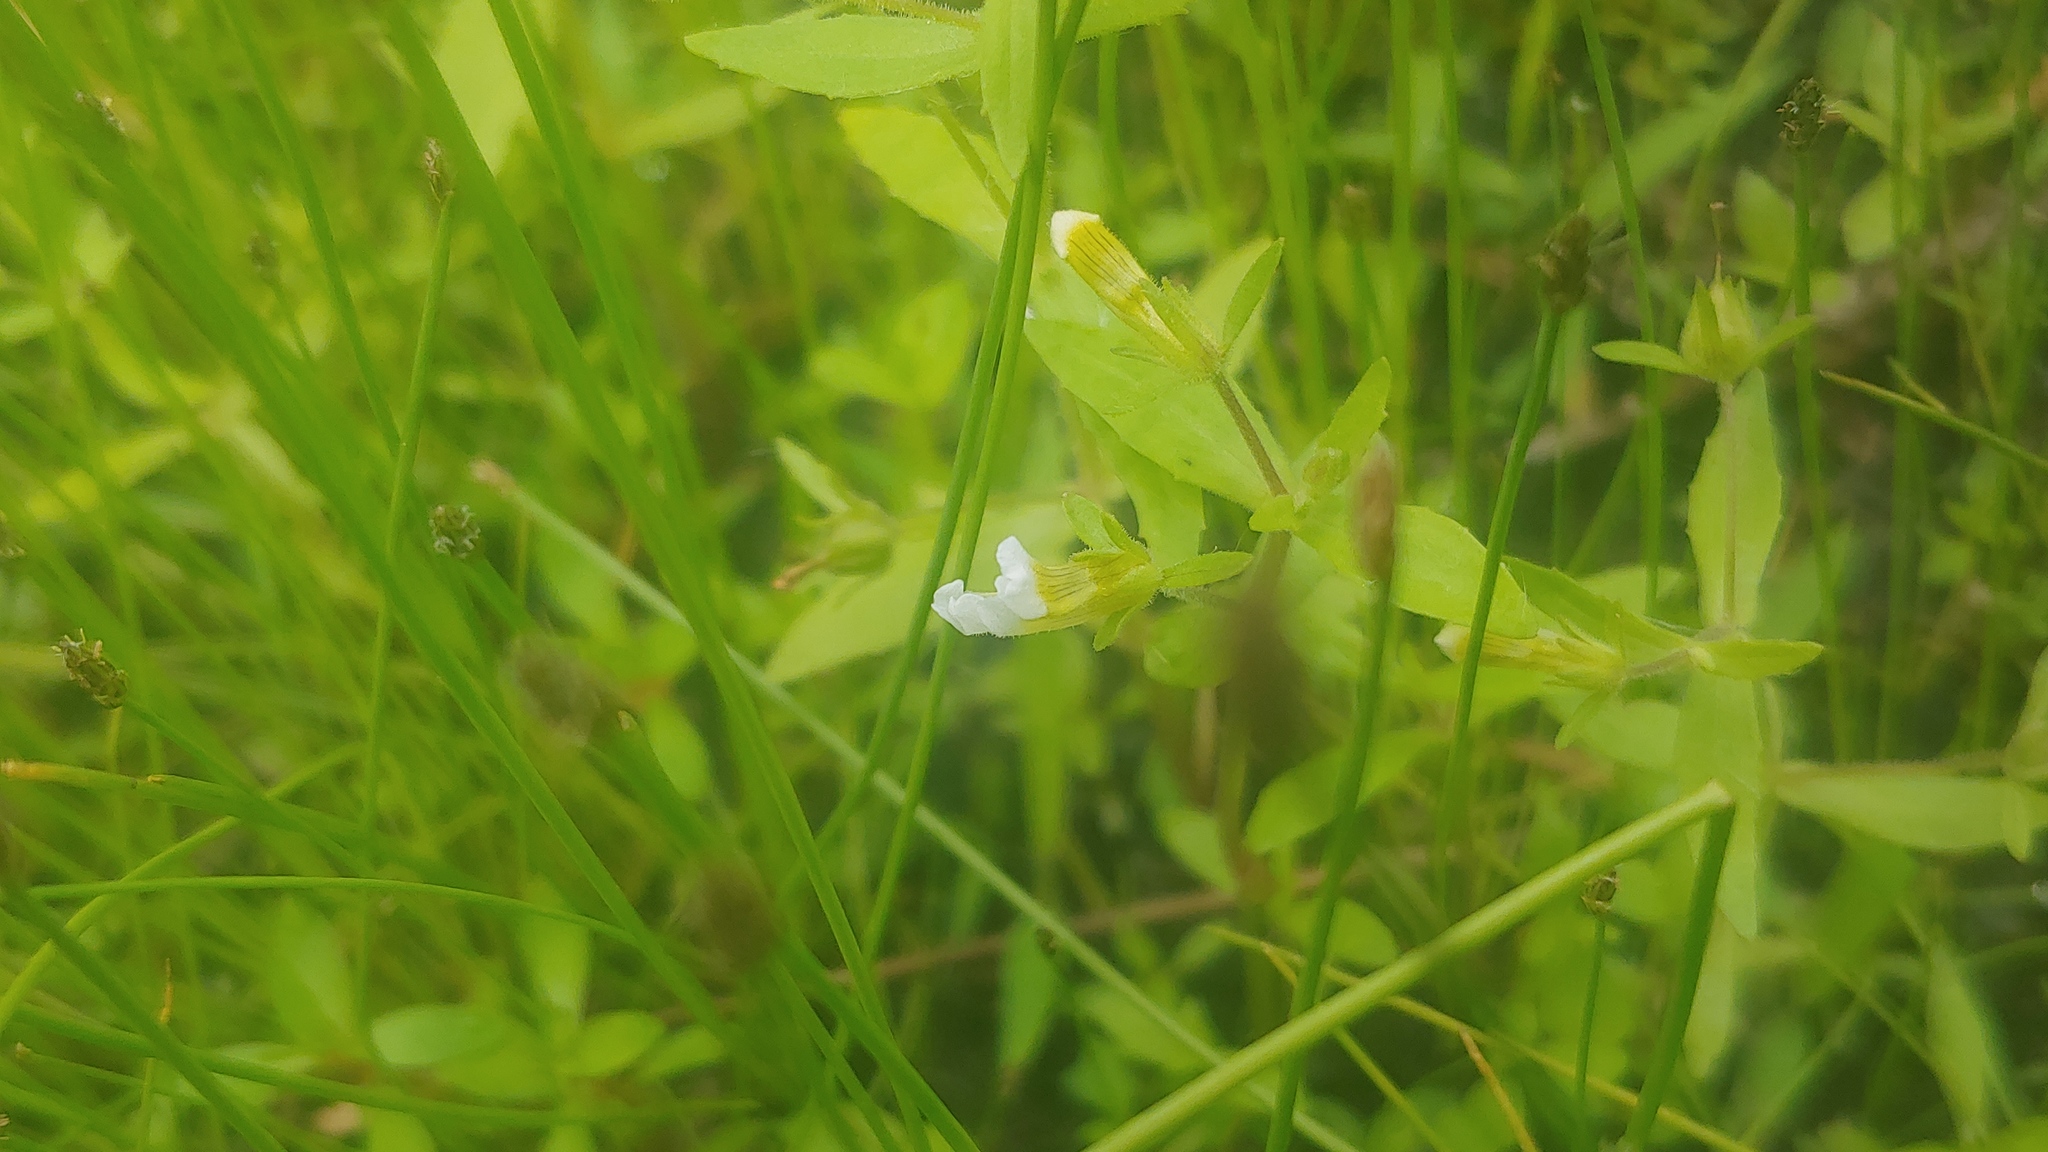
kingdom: Plantae
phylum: Tracheophyta
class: Magnoliopsida
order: Lamiales
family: Plantaginaceae
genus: Gratiola
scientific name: Gratiola neglecta
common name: American hedge-hyssop
